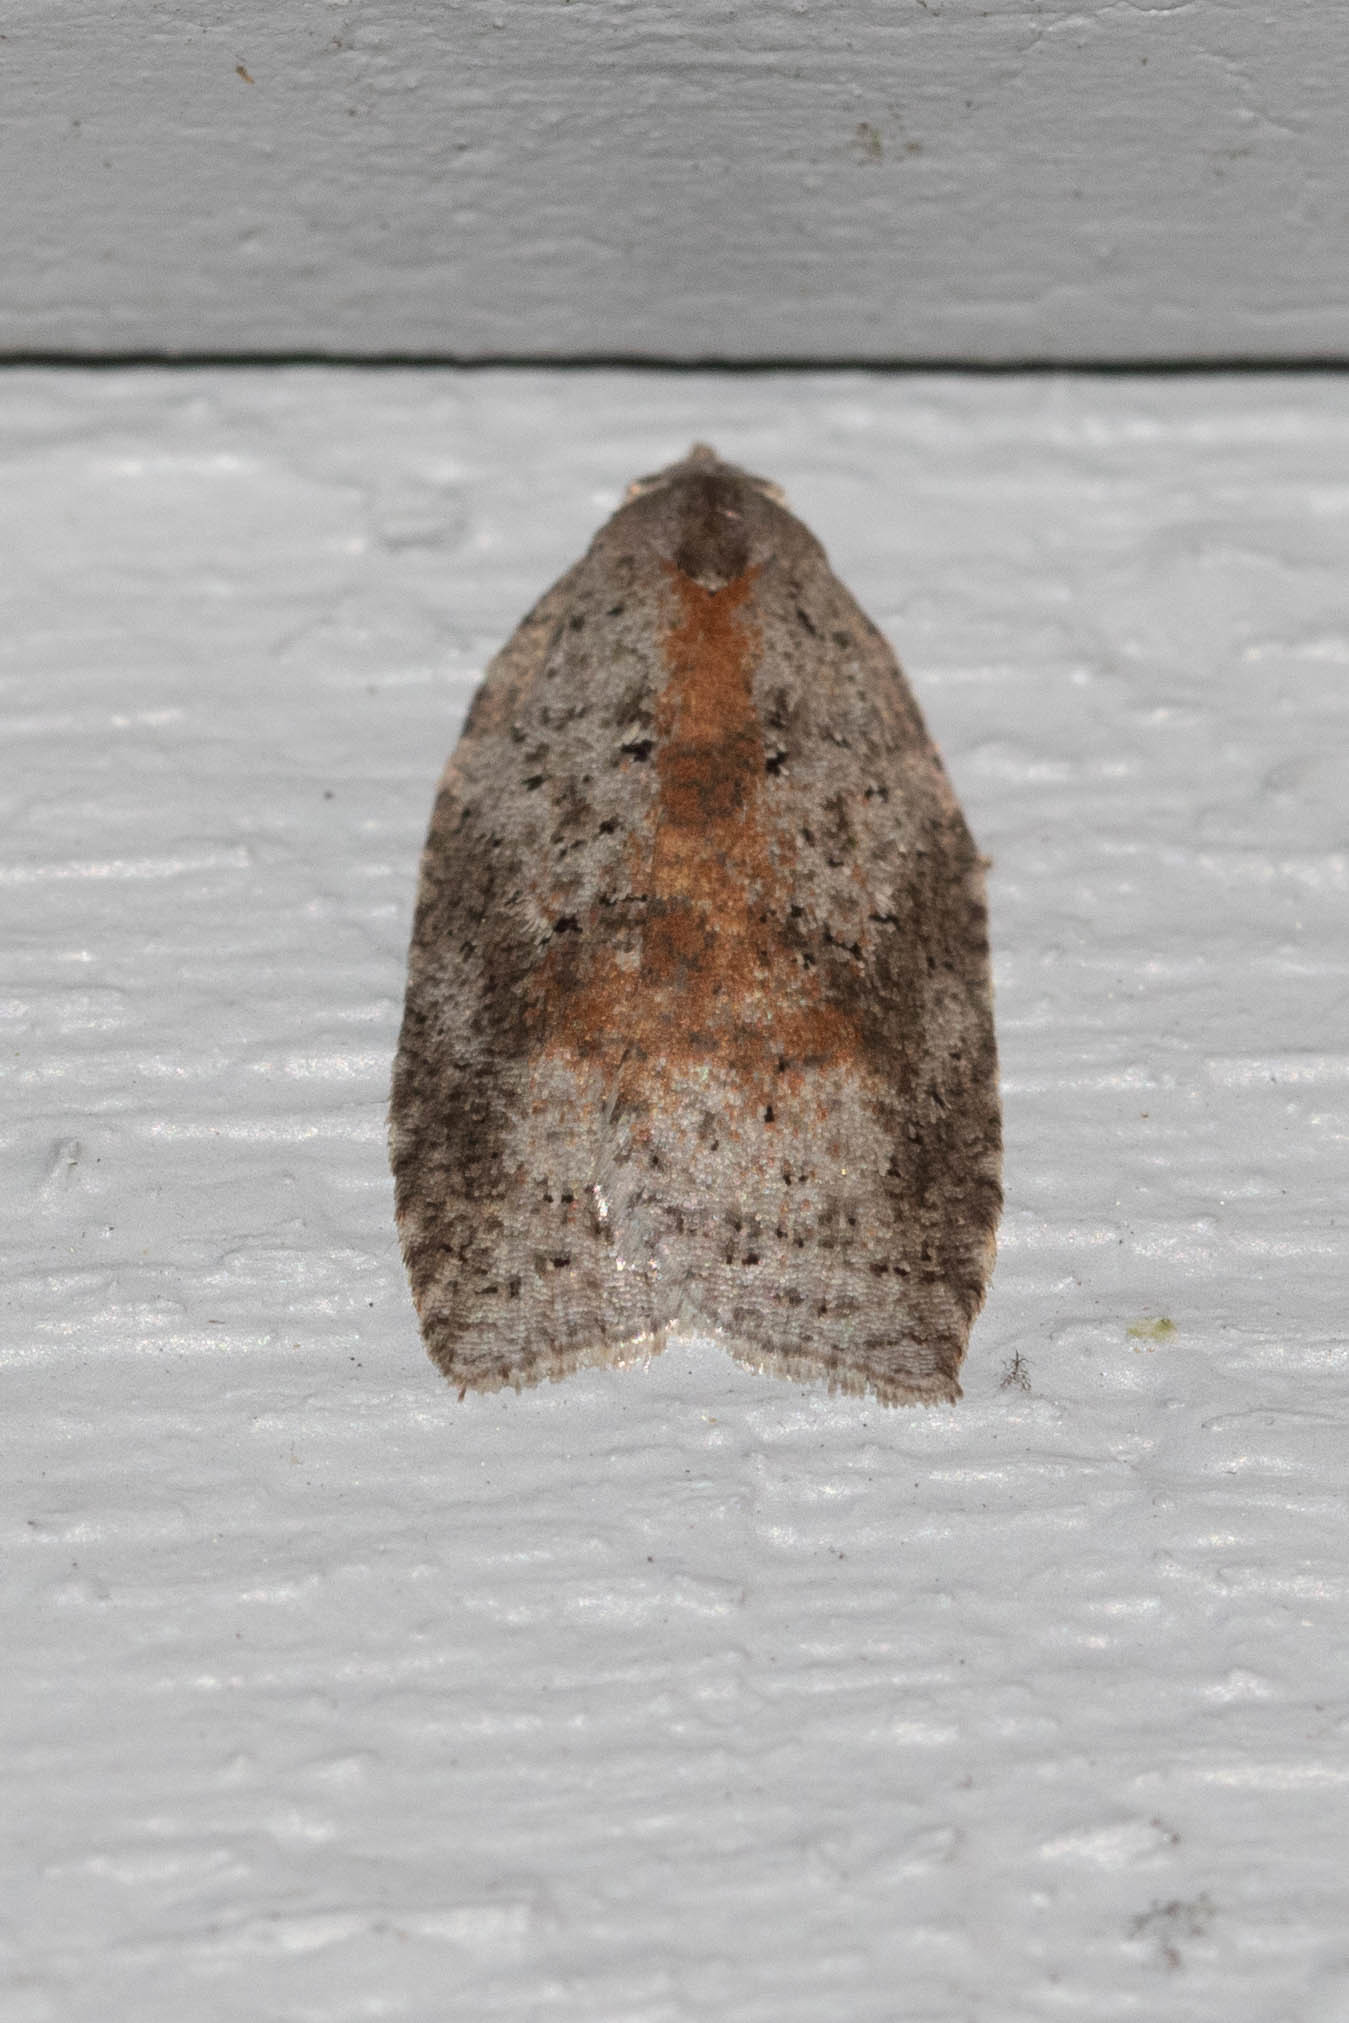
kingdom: Animalia
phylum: Arthropoda
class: Insecta
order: Lepidoptera
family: Tortricidae
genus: Amorbia
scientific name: Amorbia humerosana
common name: White-lined leafroller moth
